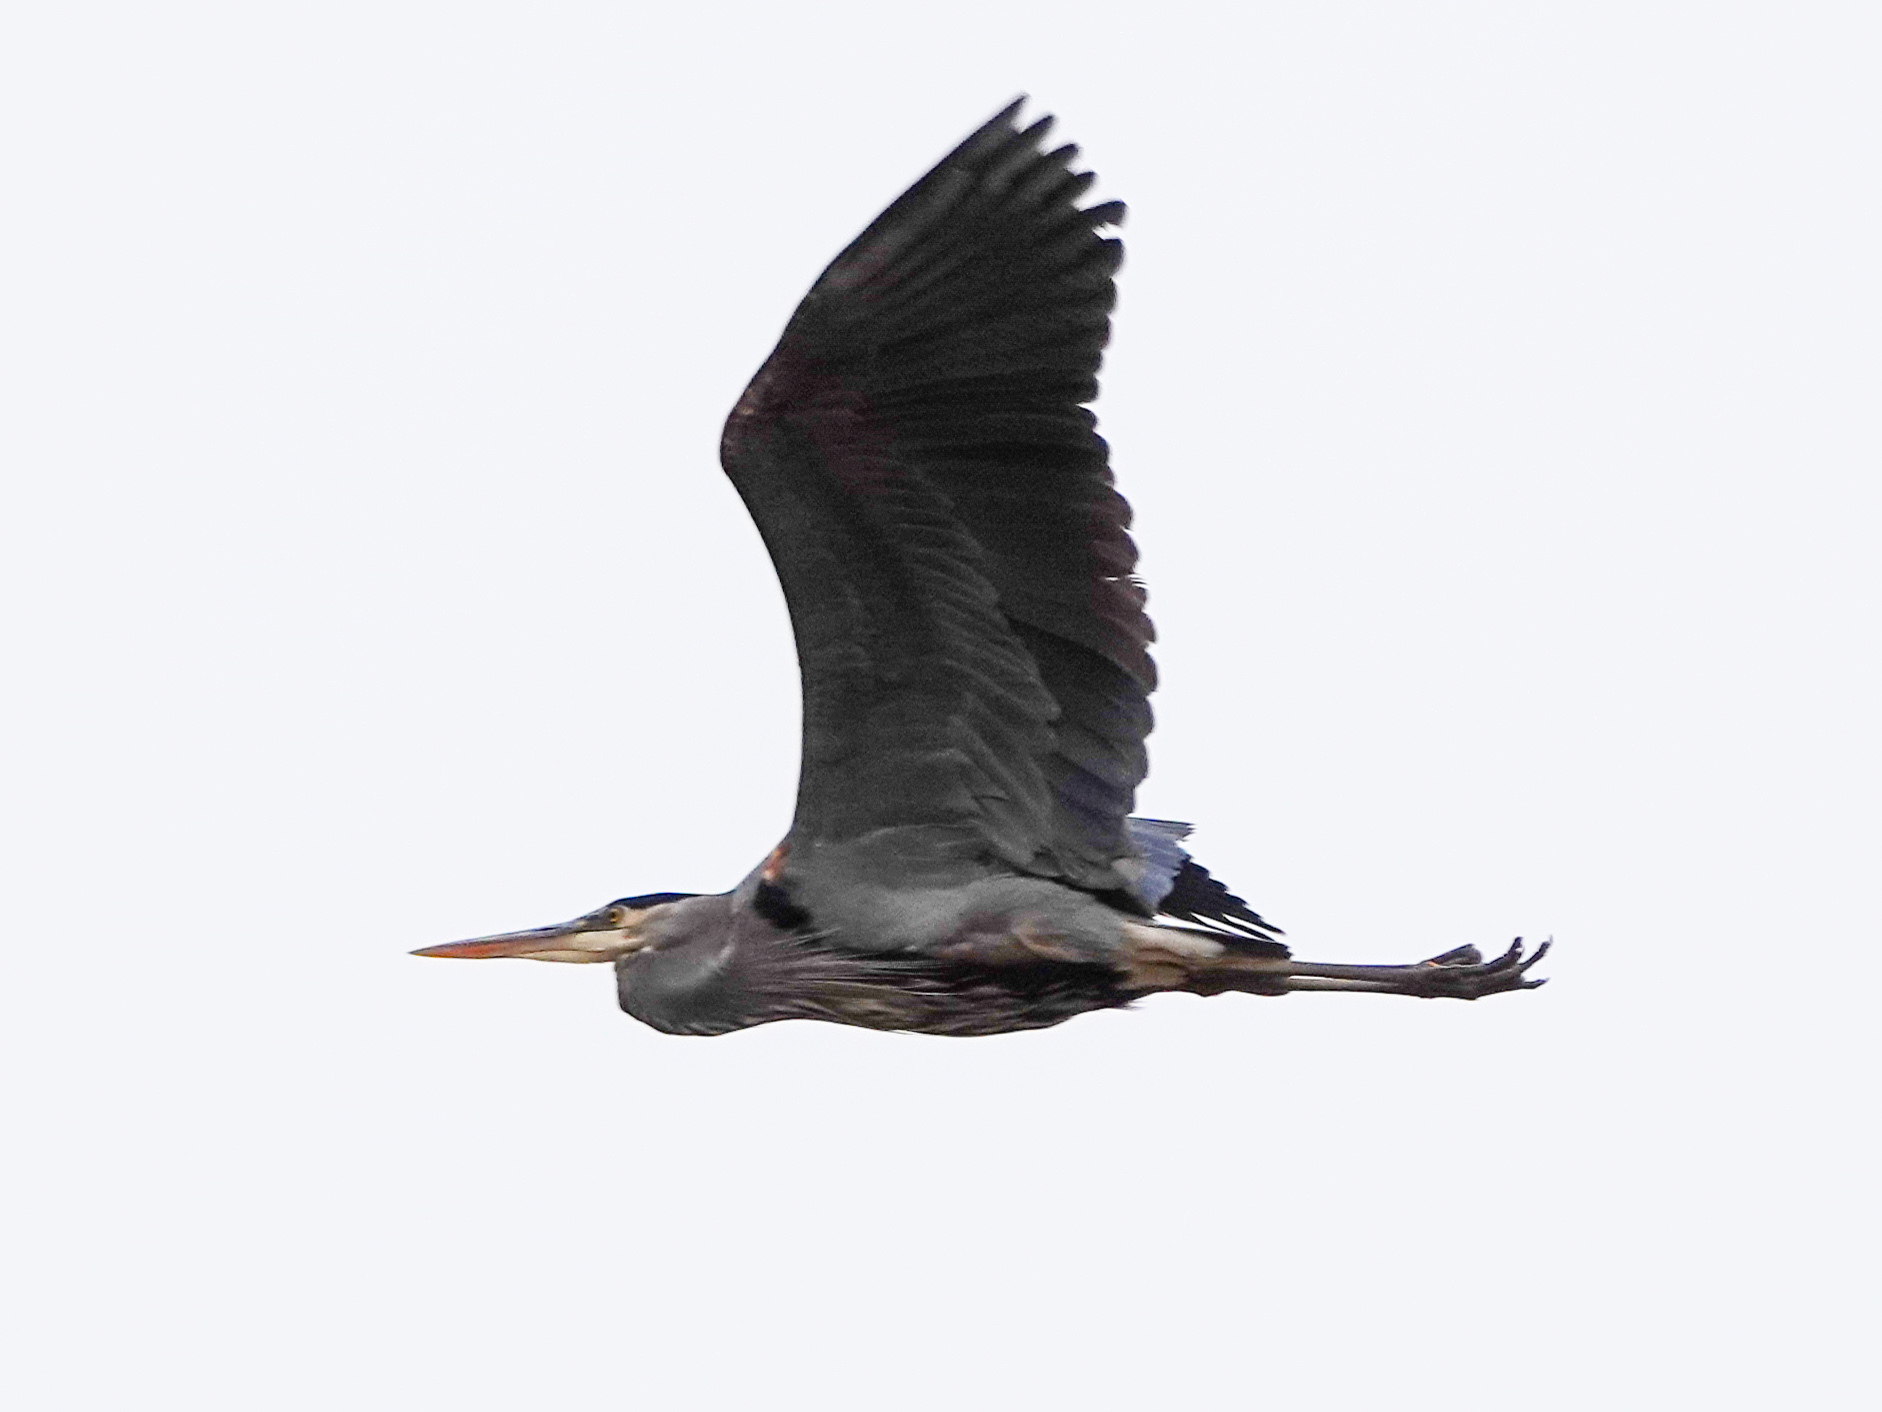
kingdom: Animalia
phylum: Chordata
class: Aves
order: Pelecaniformes
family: Ardeidae
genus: Ardea
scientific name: Ardea herodias
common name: Great blue heron
